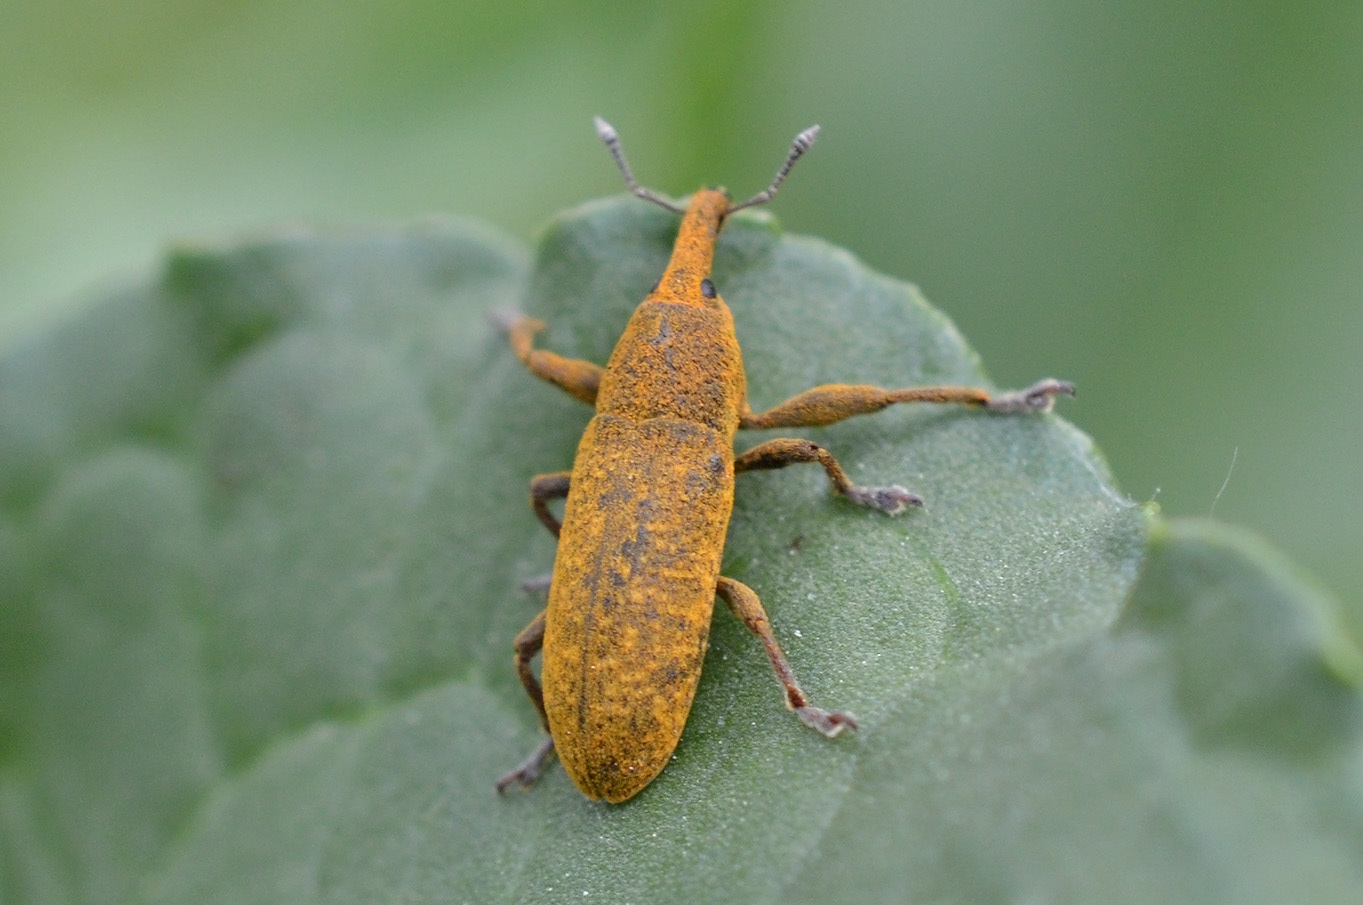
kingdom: Animalia
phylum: Arthropoda
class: Insecta
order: Coleoptera
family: Curculionidae
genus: Lixus
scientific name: Lixus bardanae
